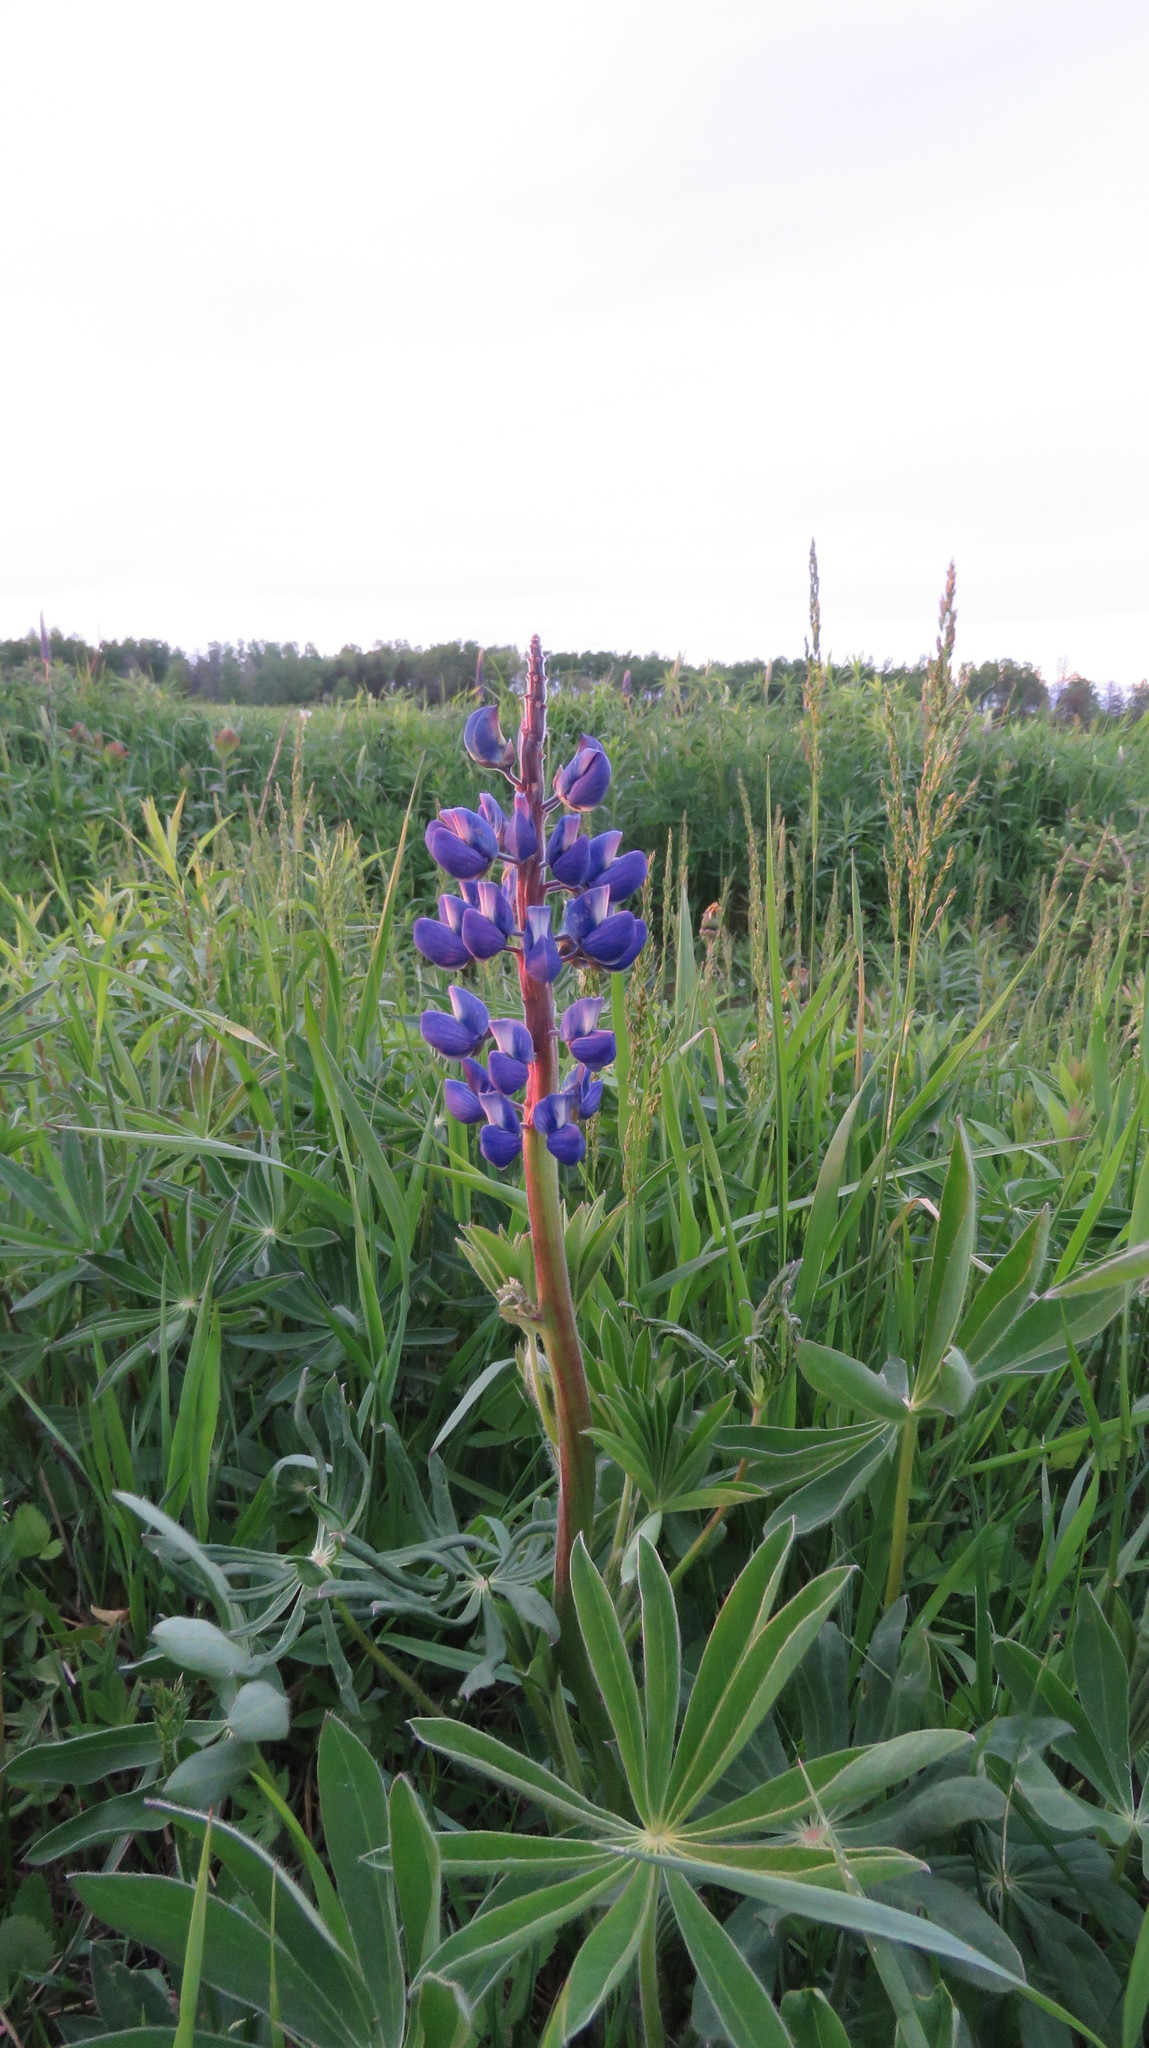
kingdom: Plantae
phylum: Tracheophyta
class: Magnoliopsida
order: Fabales
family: Fabaceae
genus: Lupinus
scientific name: Lupinus polyphyllus
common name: Garden lupin
